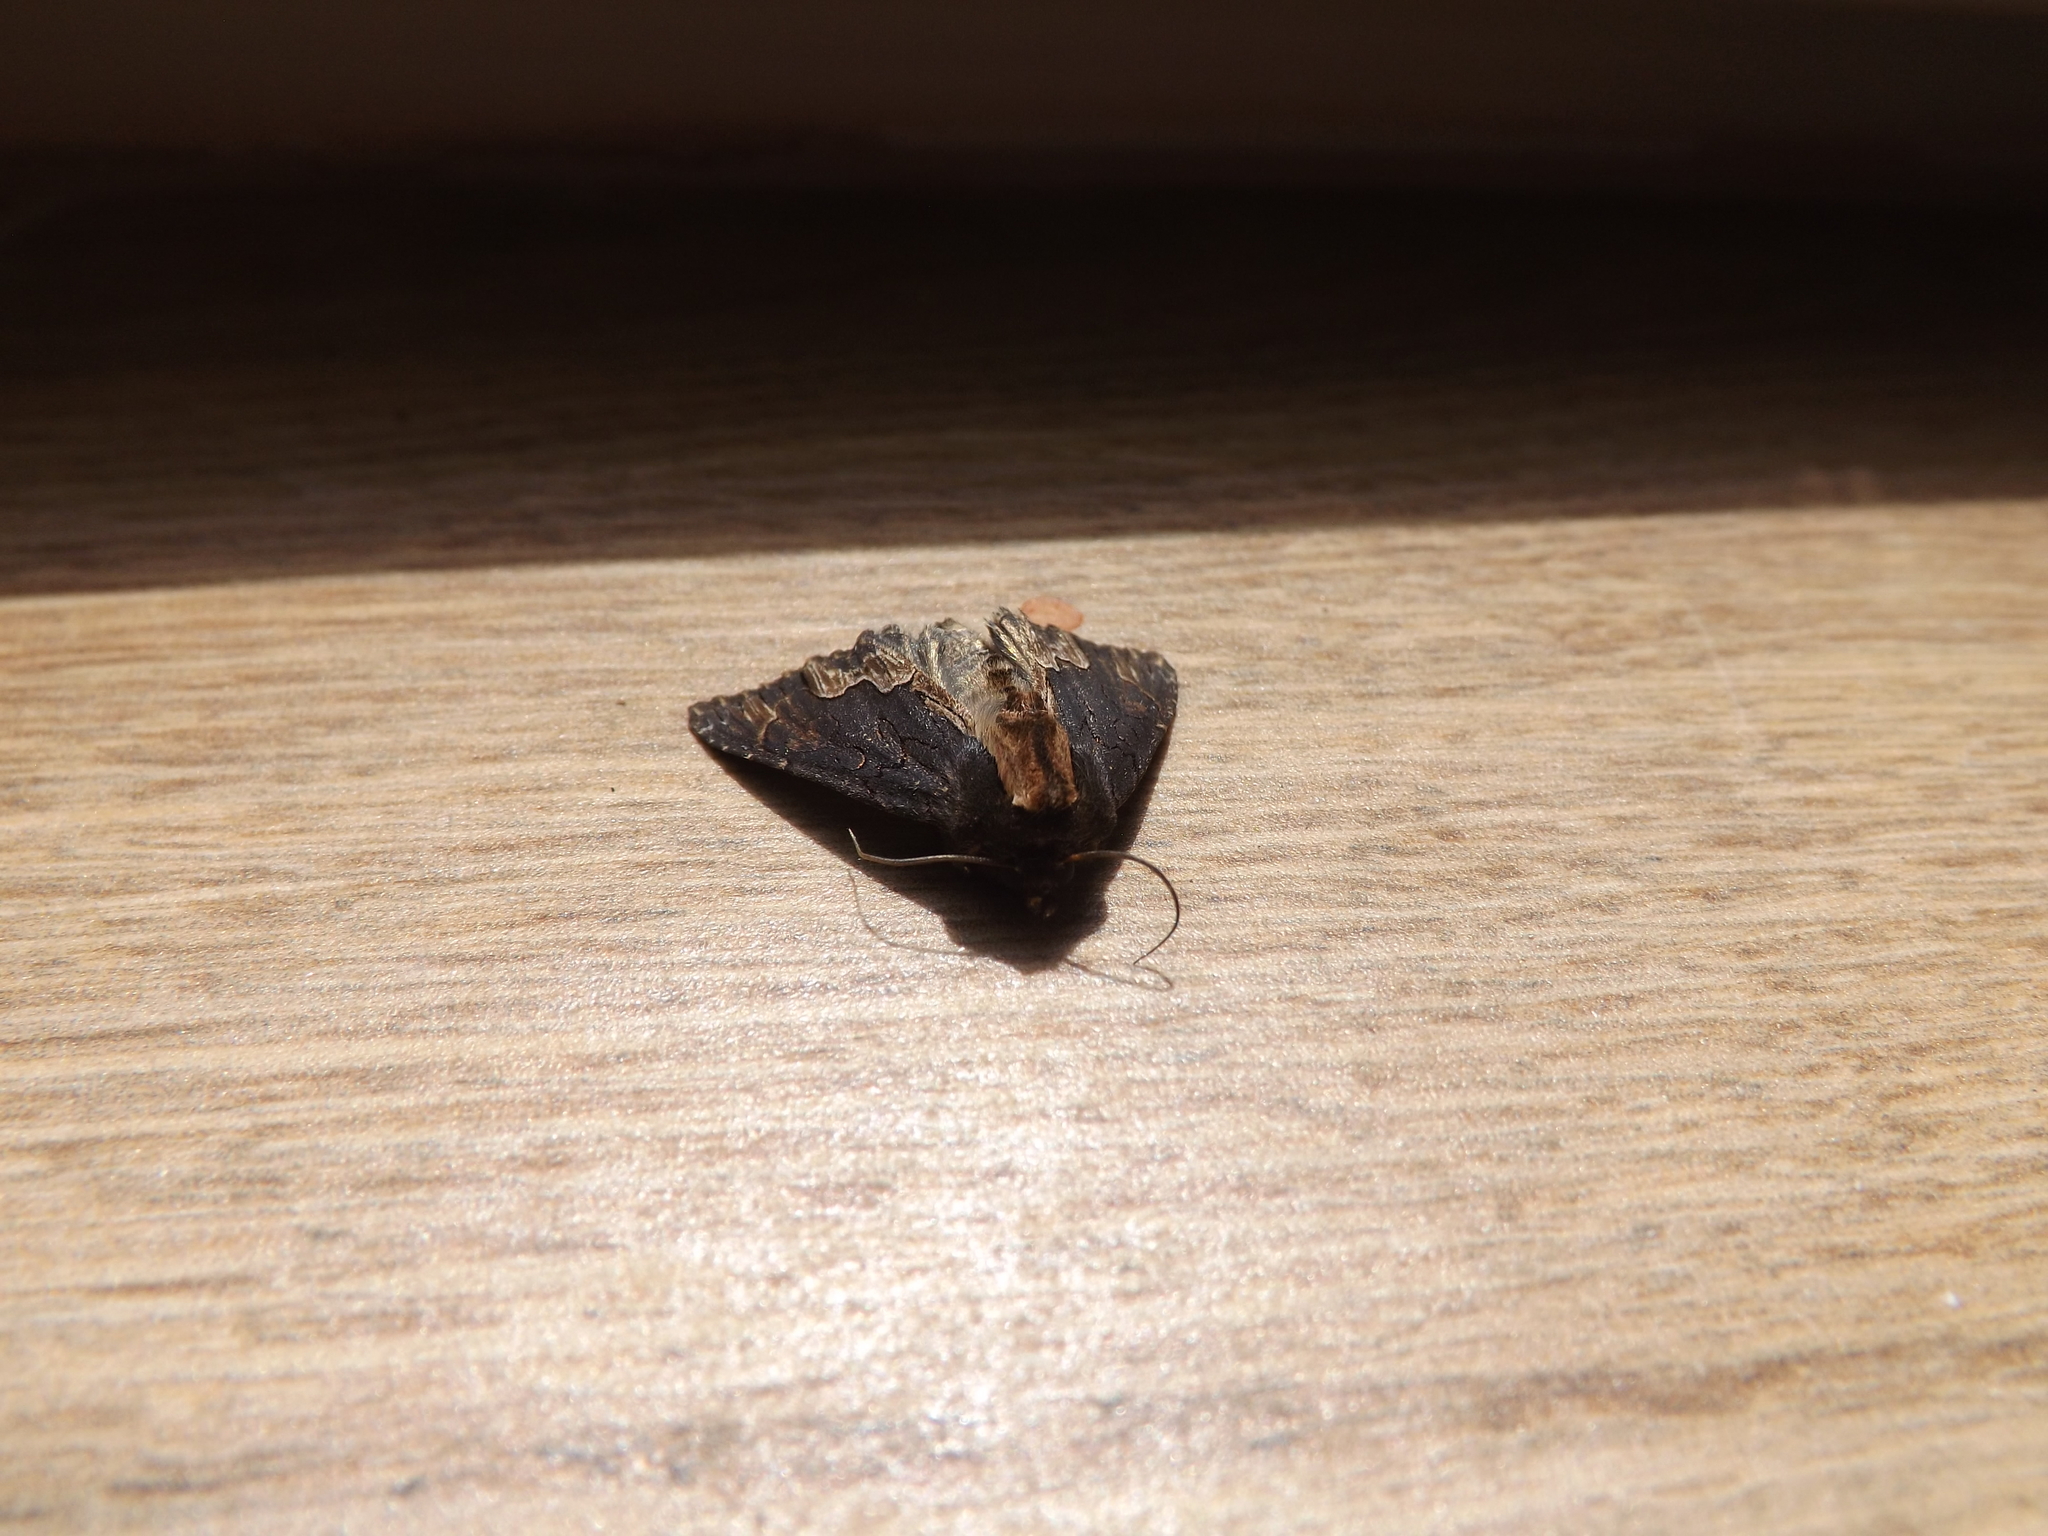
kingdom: Animalia
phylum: Arthropoda
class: Insecta
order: Lepidoptera
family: Noctuidae
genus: Dypterygia
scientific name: Dypterygia scabriuscula
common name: Bird's wing
